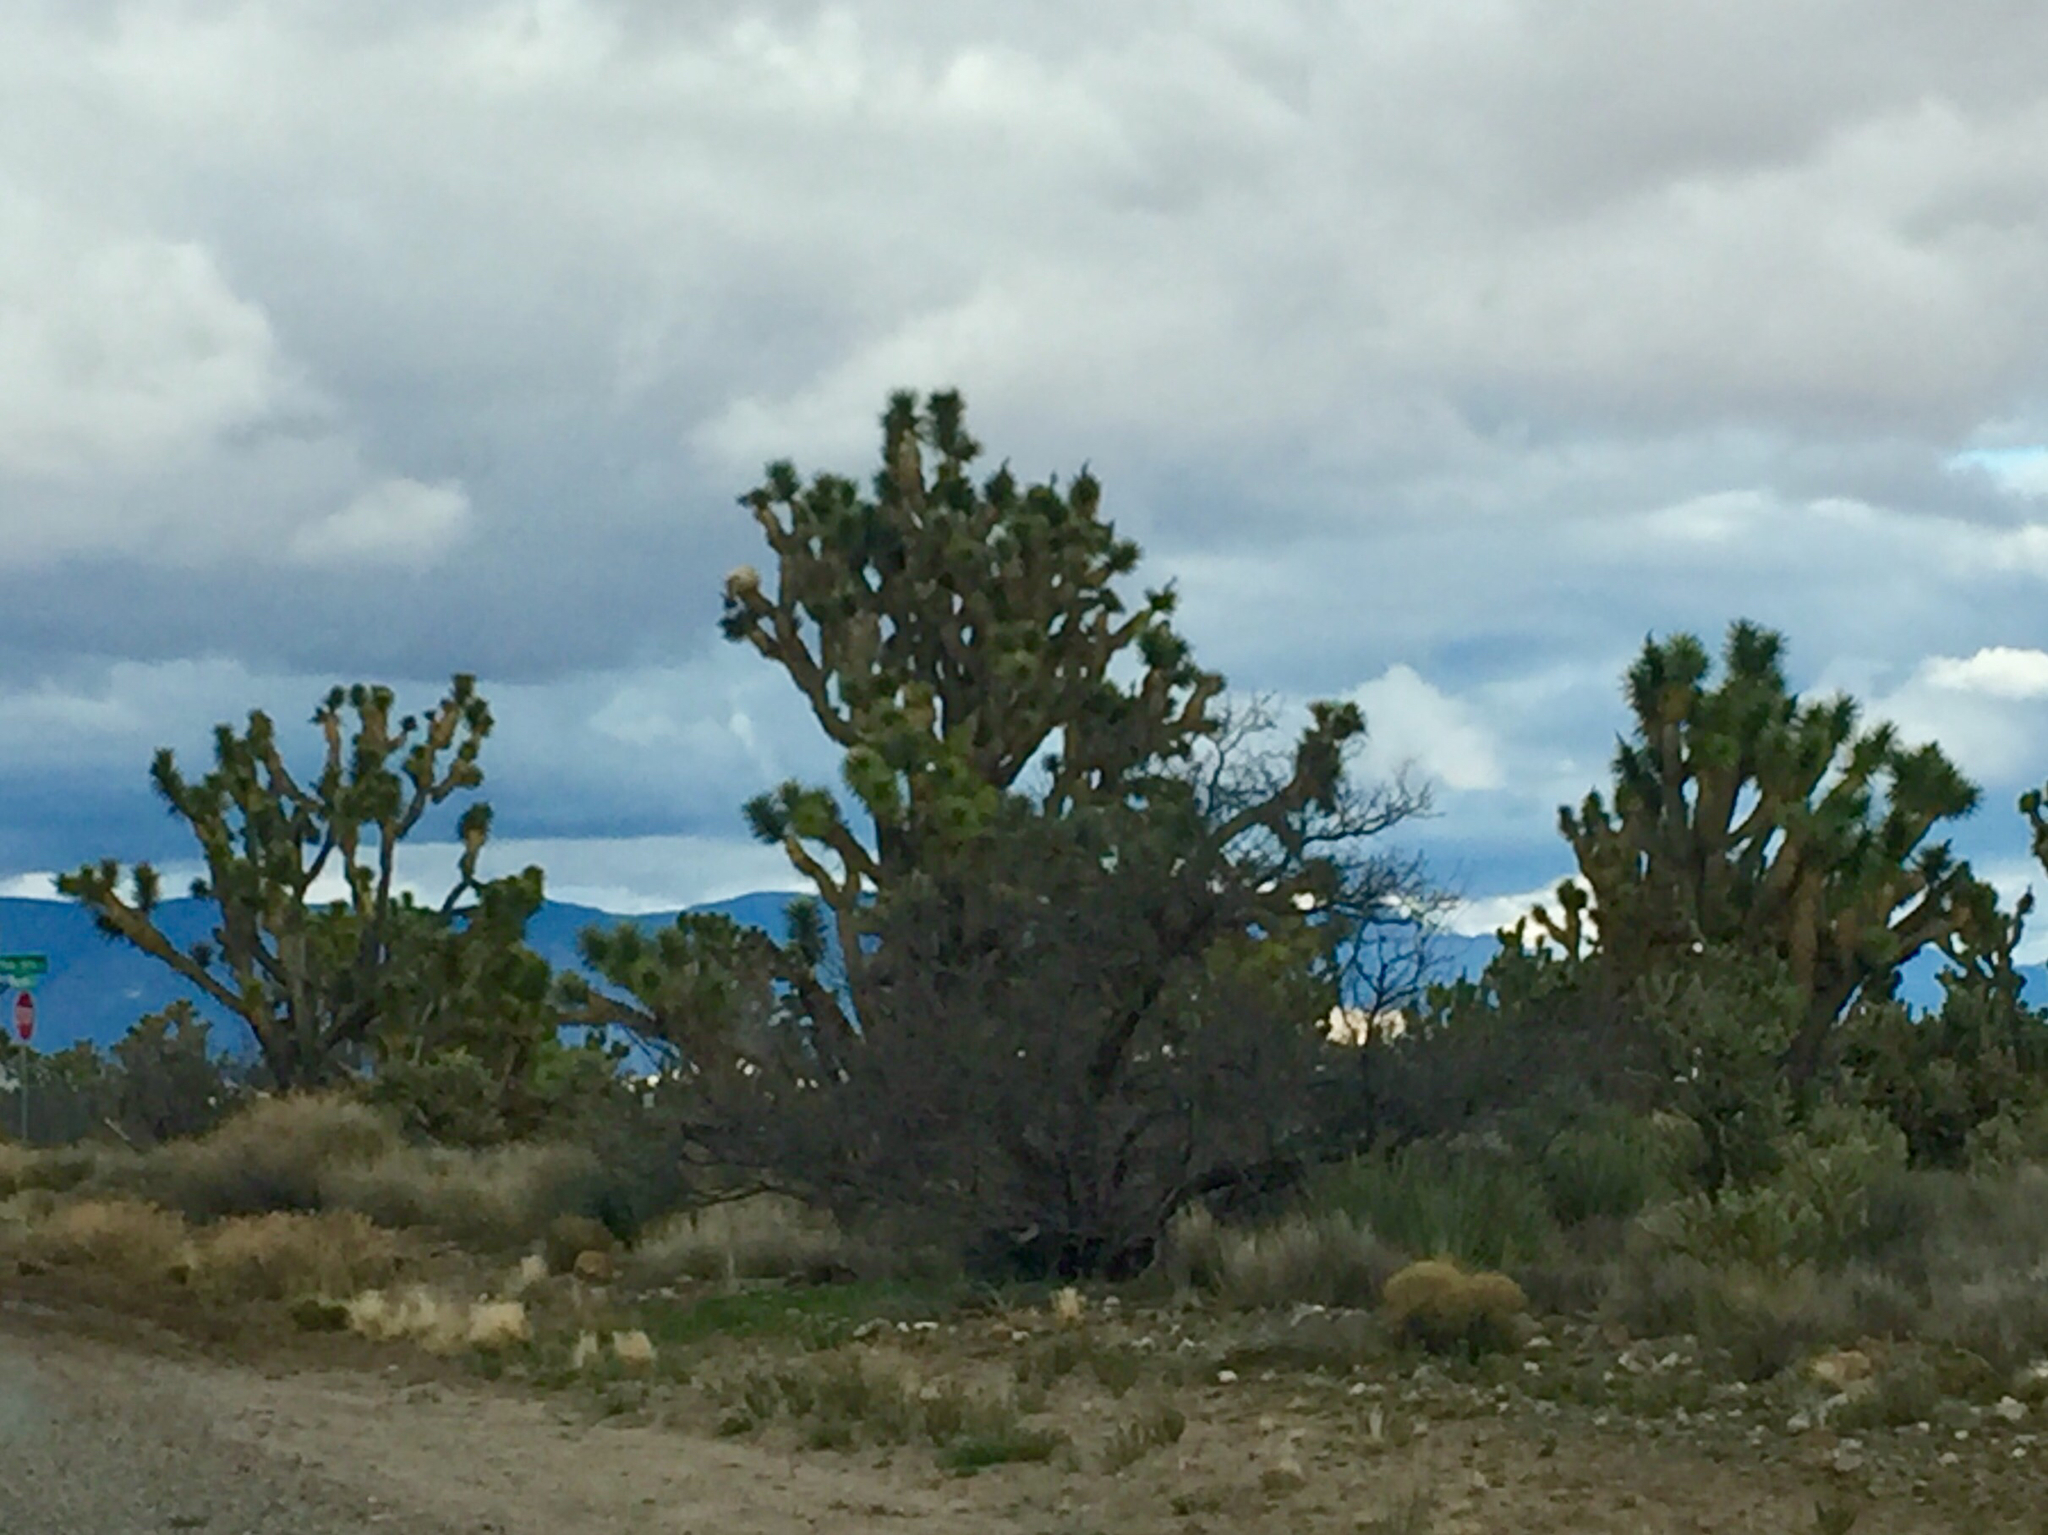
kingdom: Plantae
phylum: Tracheophyta
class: Liliopsida
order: Asparagales
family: Asparagaceae
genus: Yucca
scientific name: Yucca brevifolia
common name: Joshua tree
